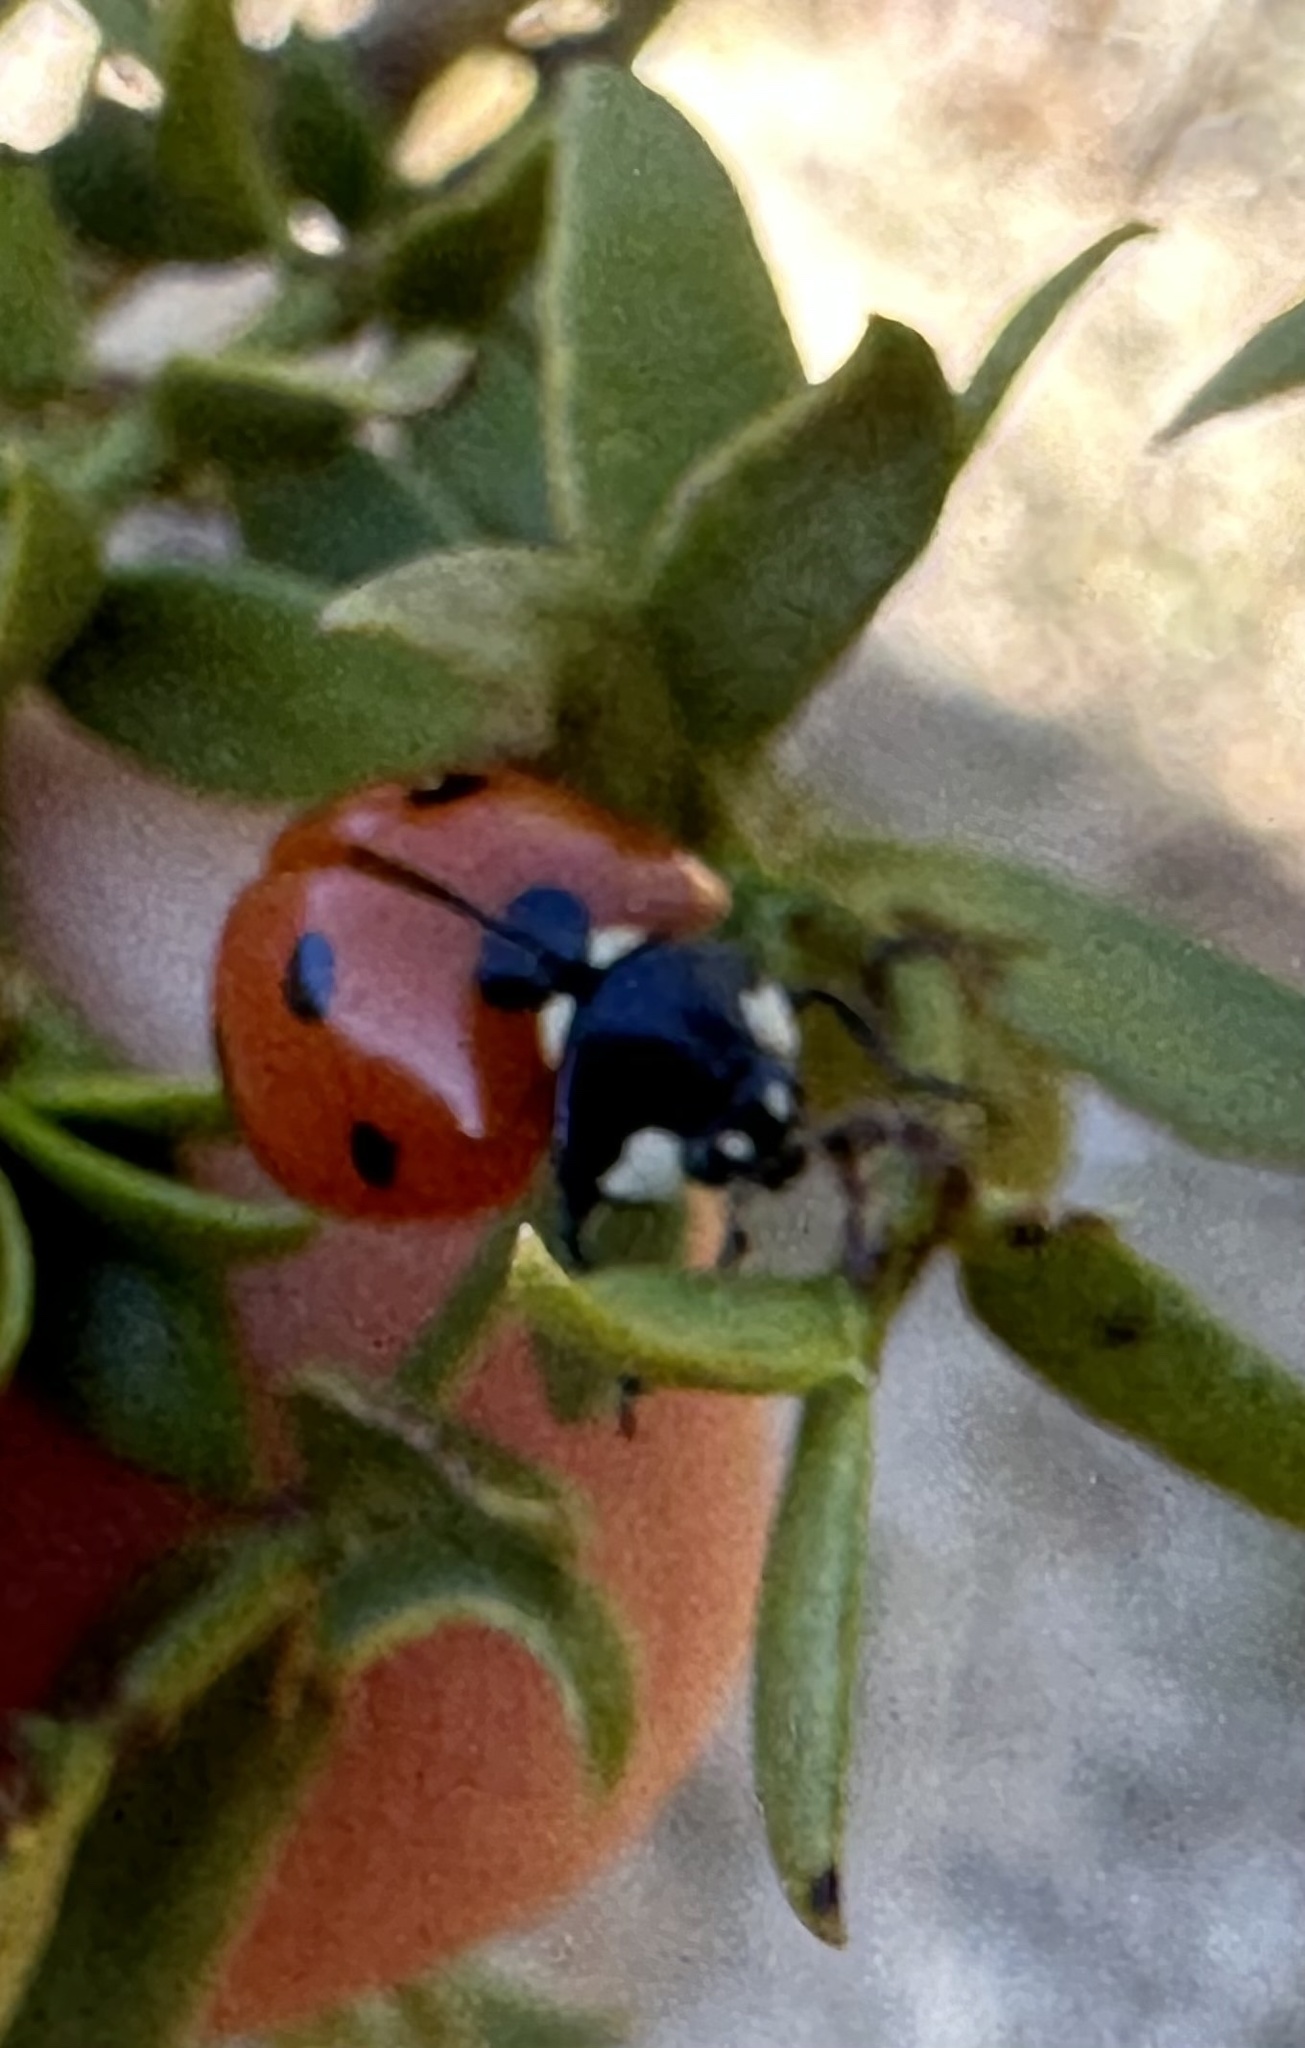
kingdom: Animalia
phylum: Arthropoda
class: Insecta
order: Coleoptera
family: Coccinellidae
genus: Coccinella
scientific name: Coccinella septempunctata
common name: Sevenspotted lady beetle
